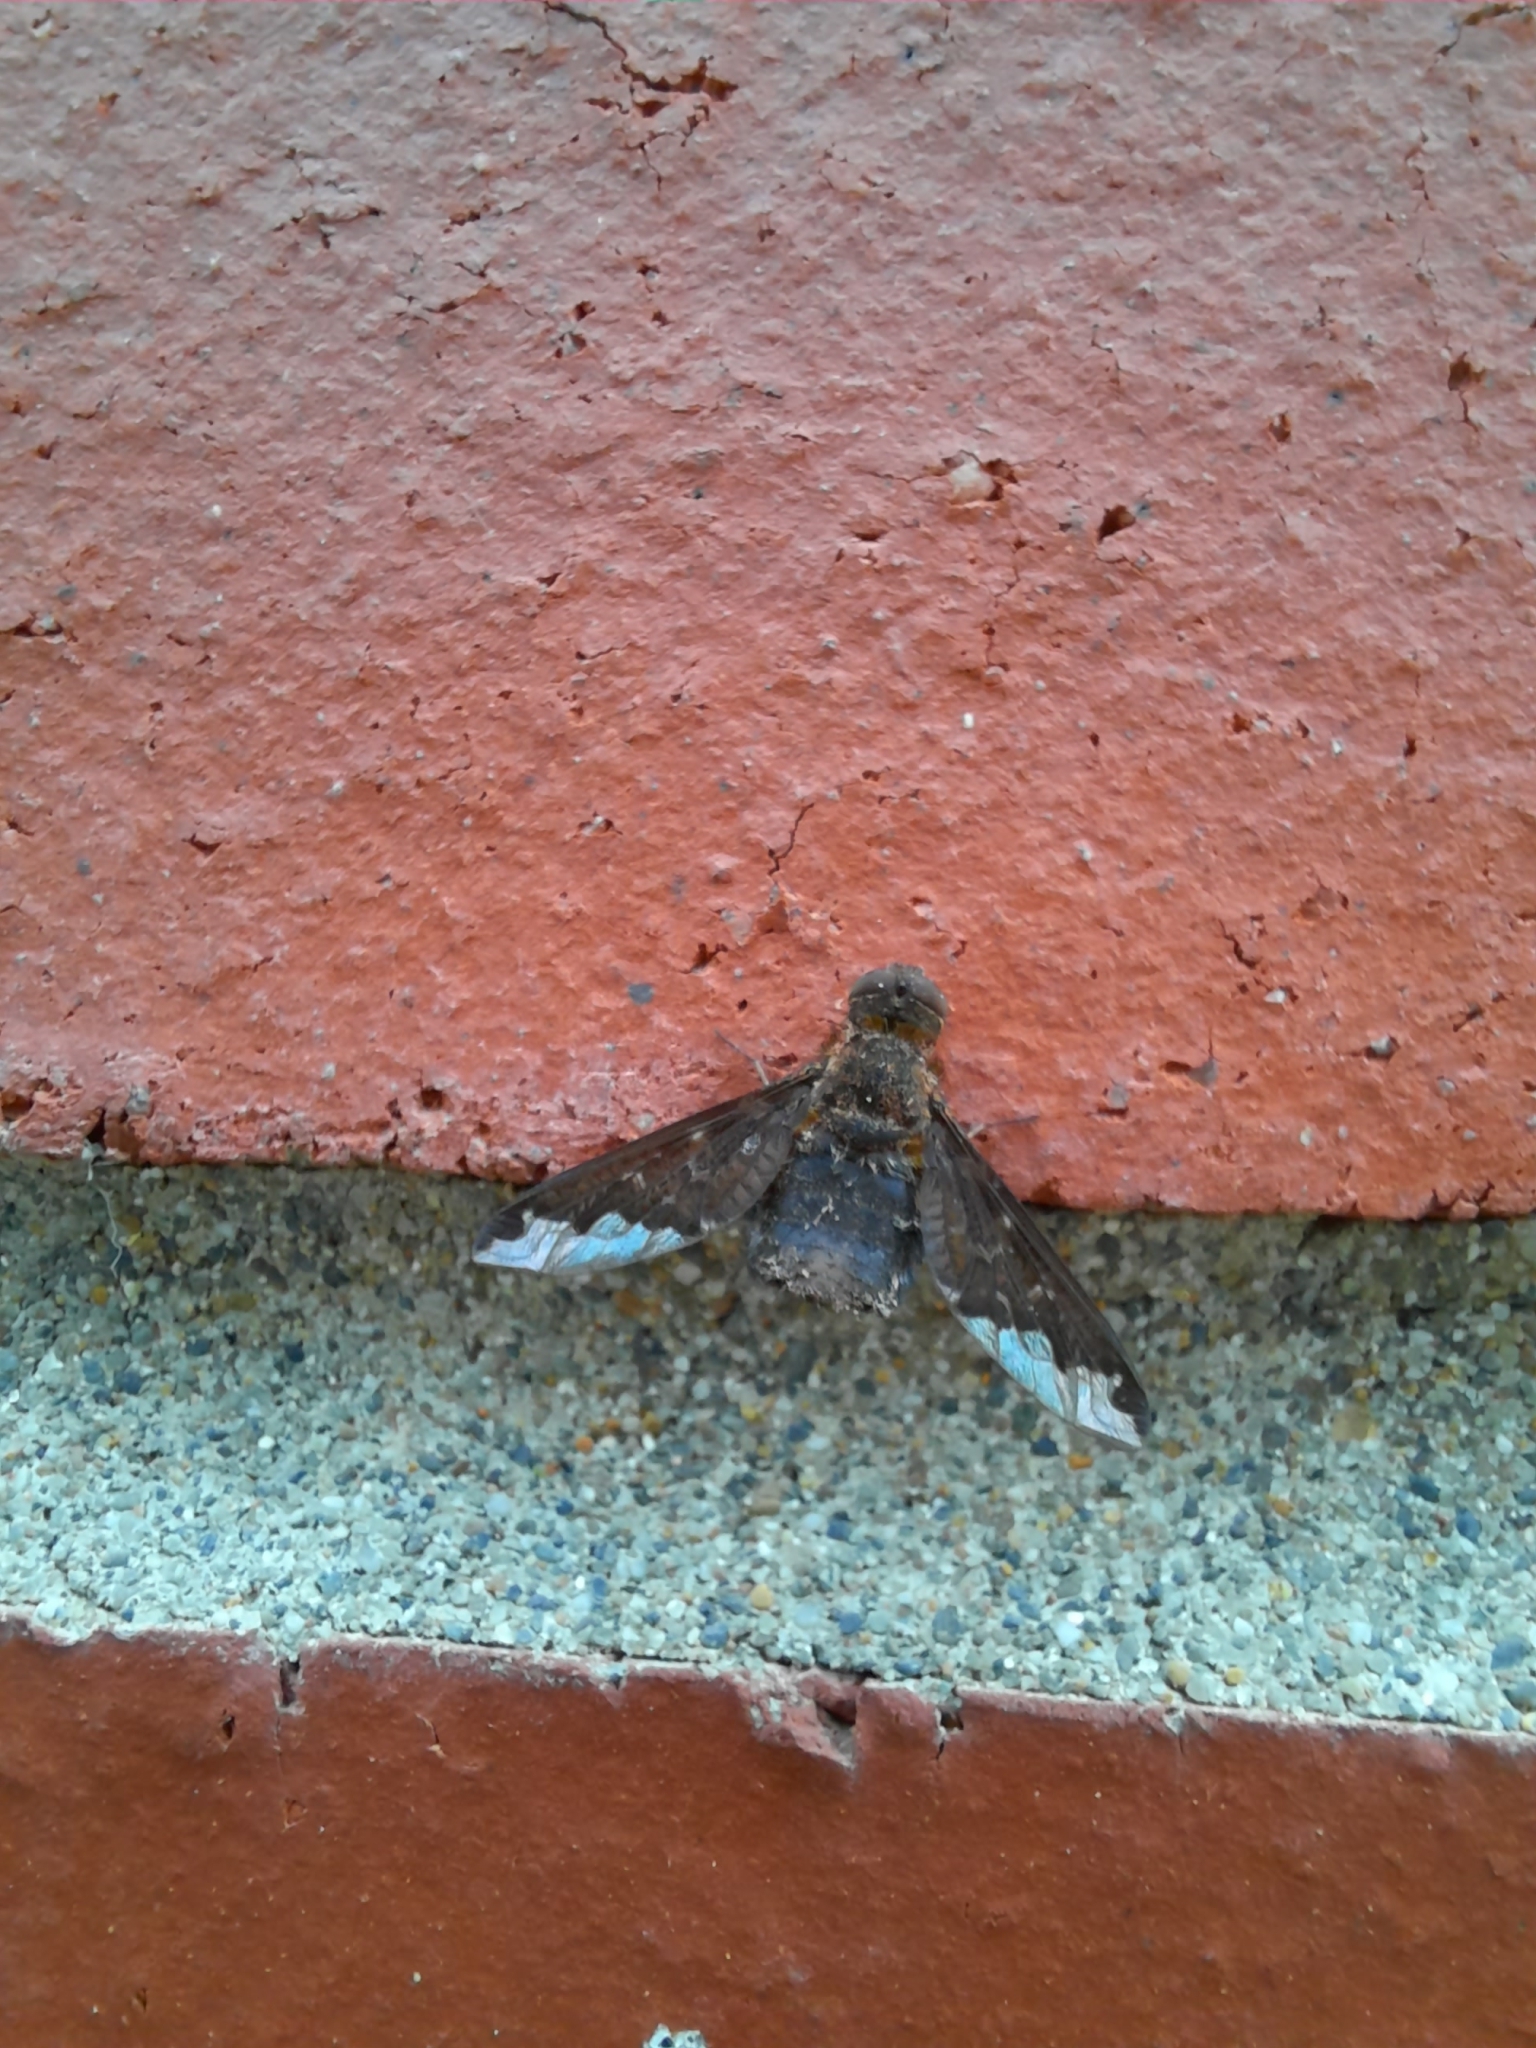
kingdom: Animalia
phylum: Arthropoda
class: Insecta
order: Diptera
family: Bombyliidae
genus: Hemipenthes
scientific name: Hemipenthes sinuosus
